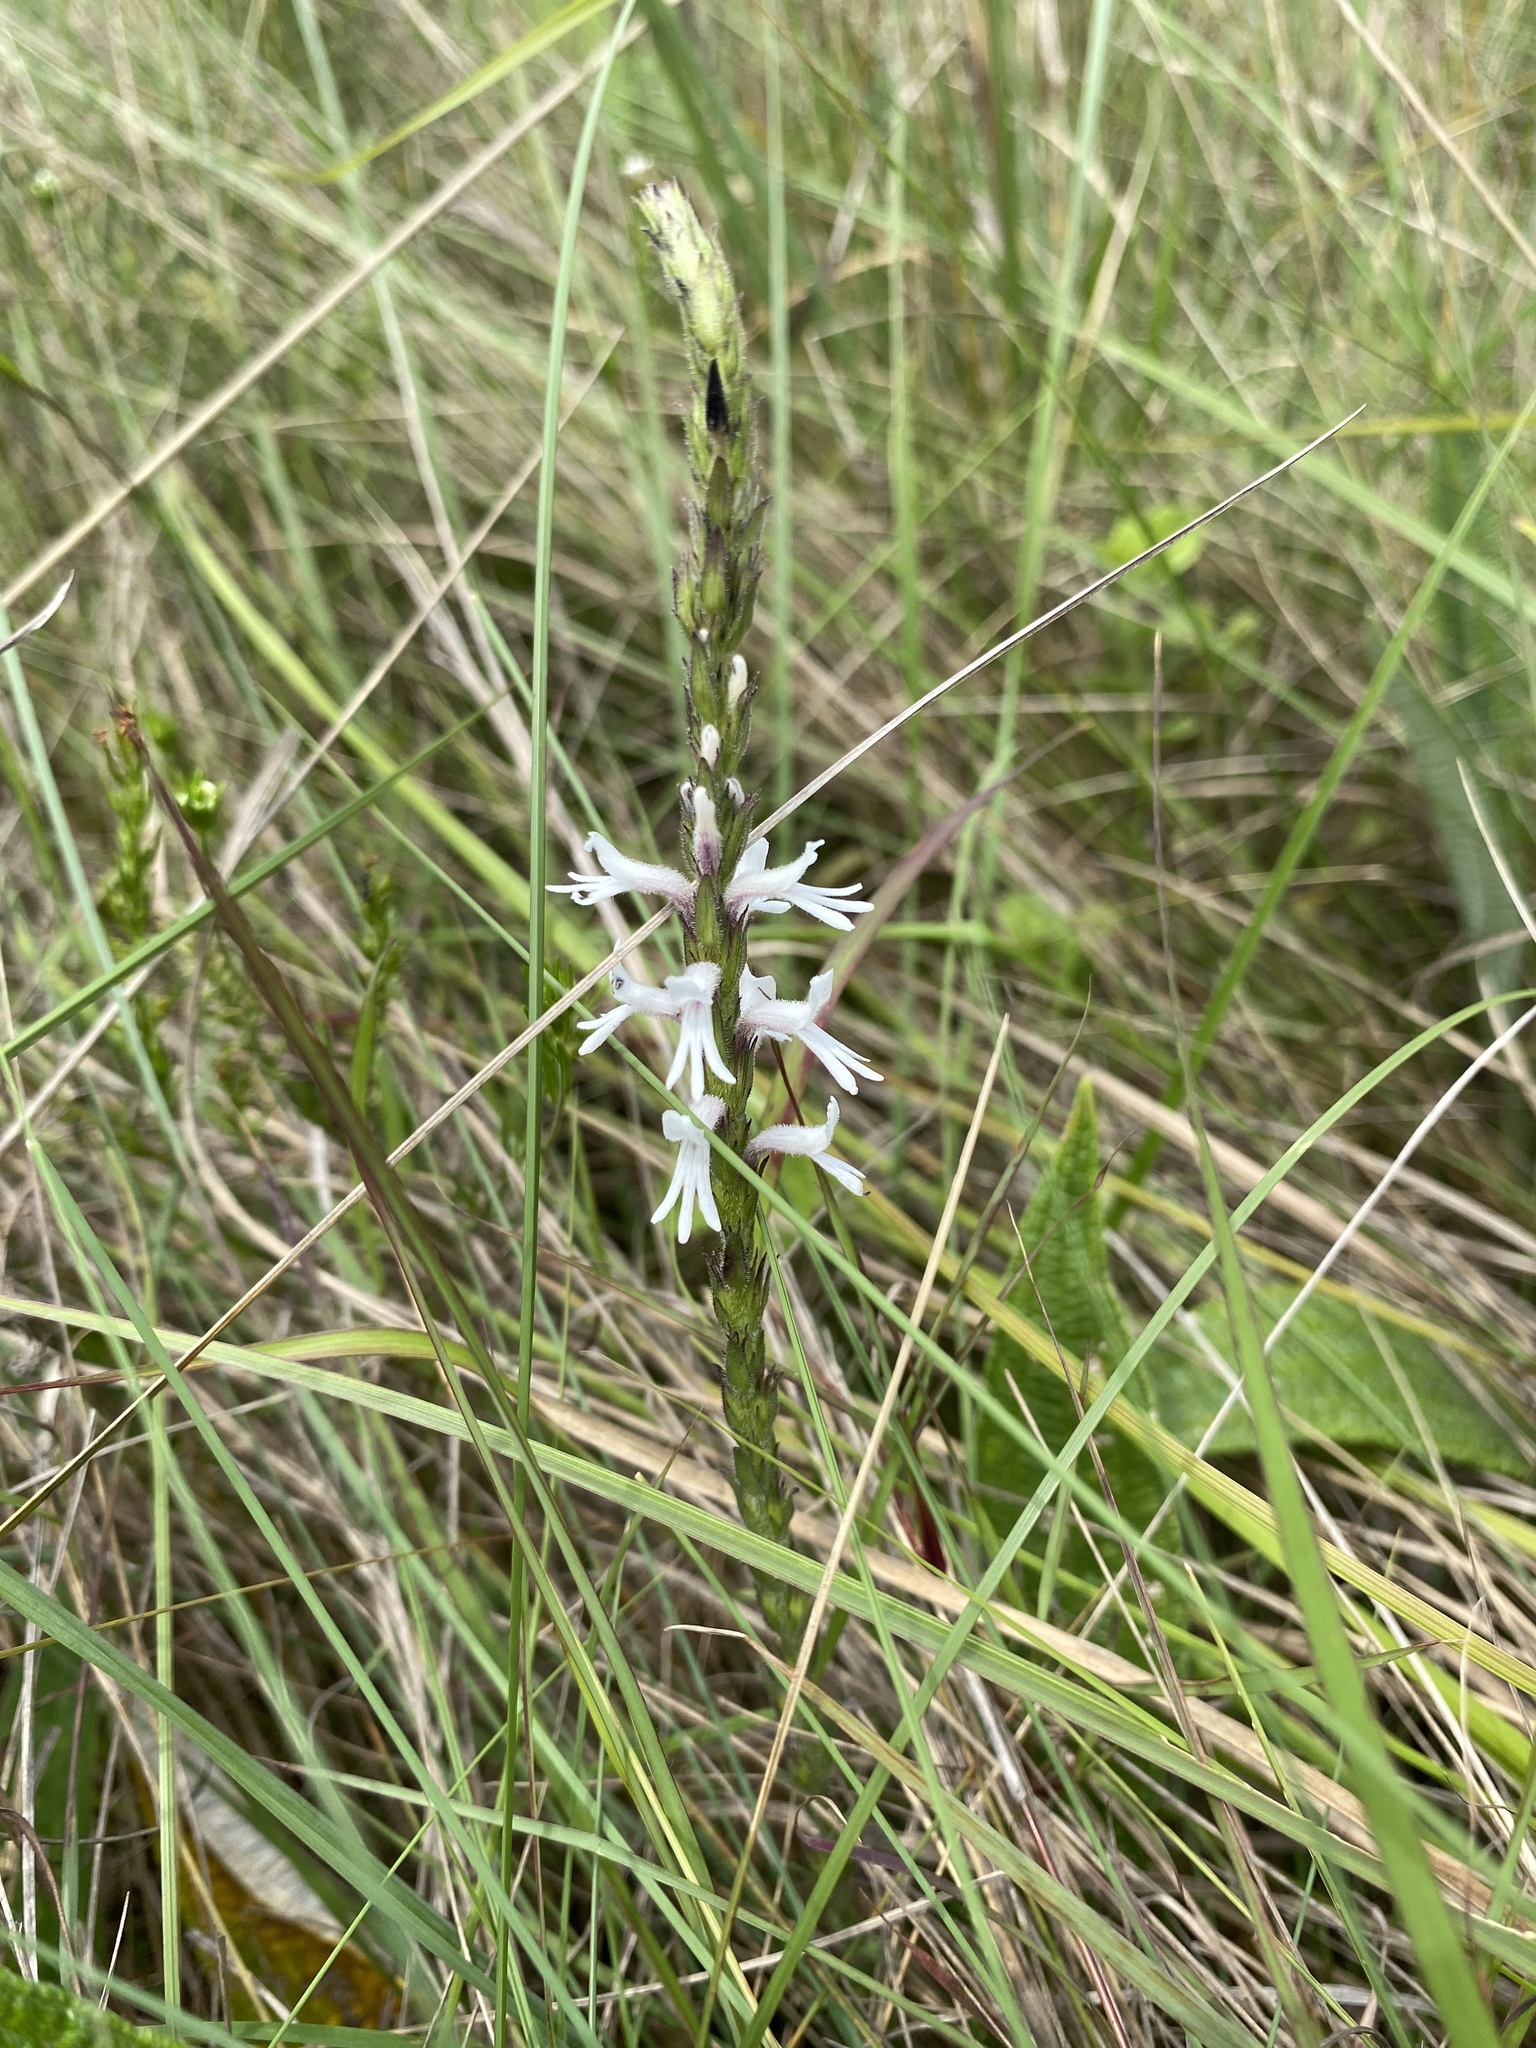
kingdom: Plantae
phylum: Tracheophyta
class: Magnoliopsida
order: Lamiales
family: Orobanchaceae
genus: Striga
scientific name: Striga bilabiata
